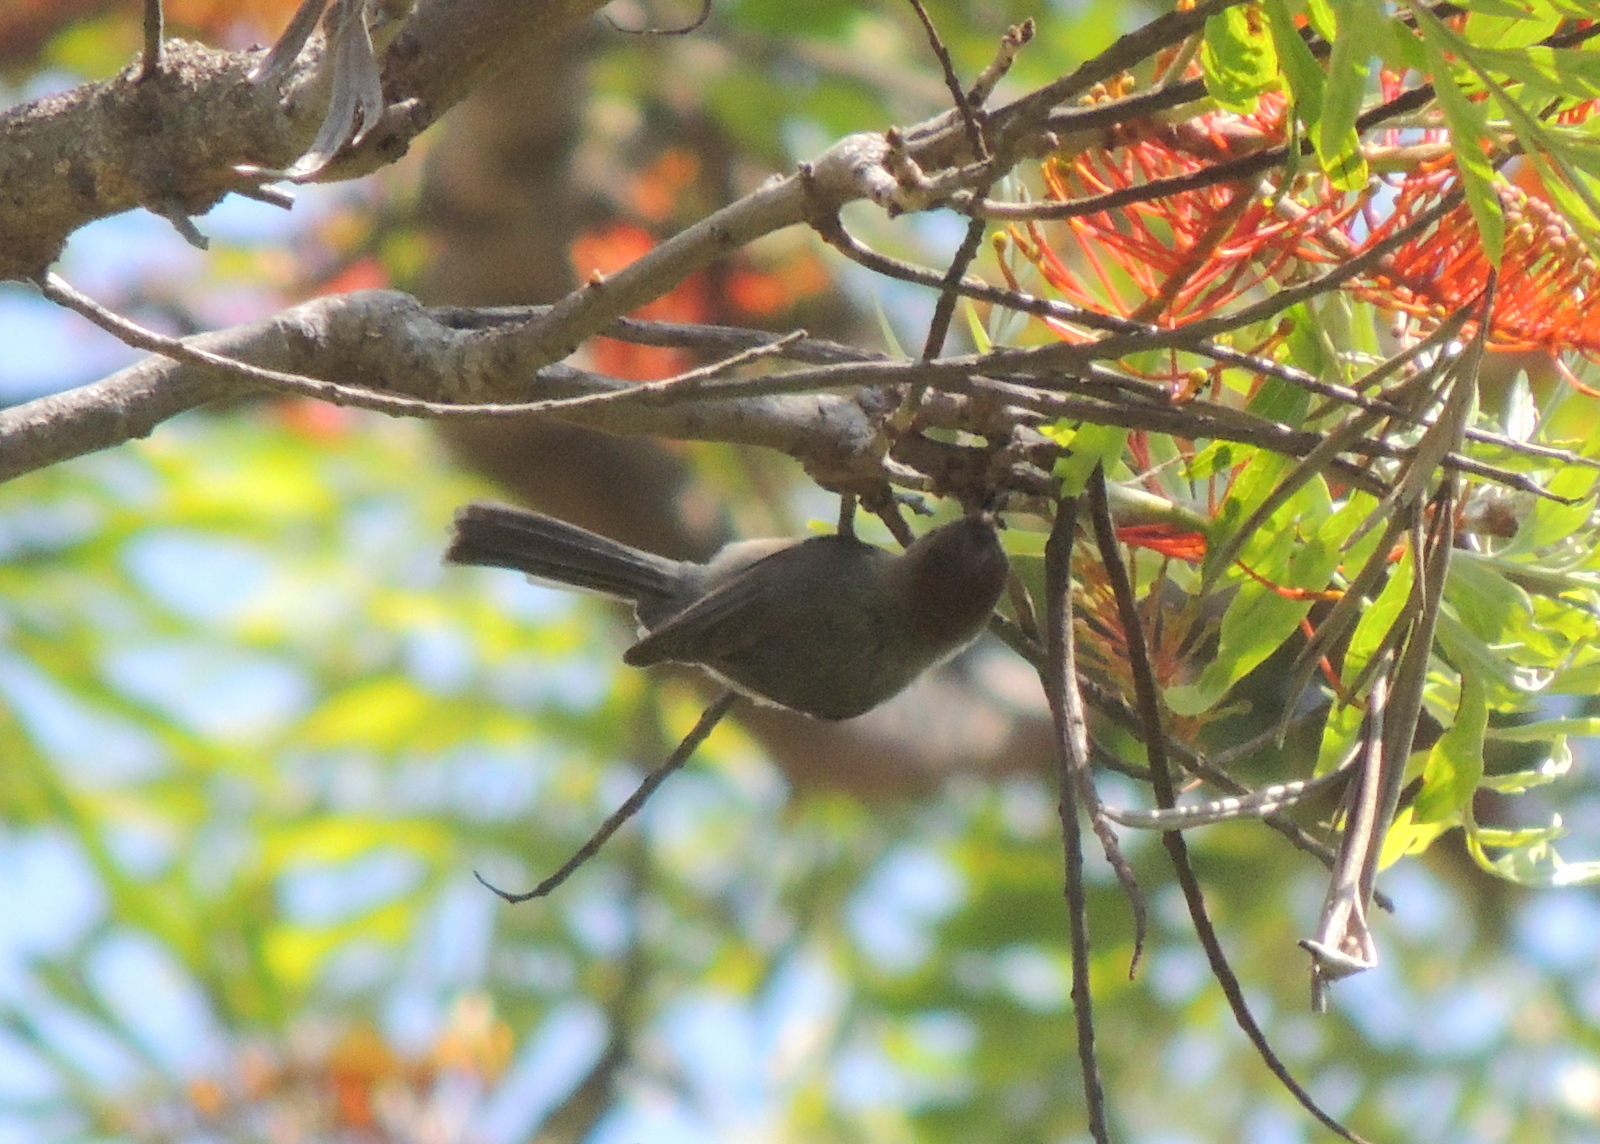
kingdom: Animalia
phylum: Chordata
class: Aves
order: Passeriformes
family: Aegithalidae
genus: Psaltriparus
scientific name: Psaltriparus minimus
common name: American bushtit
